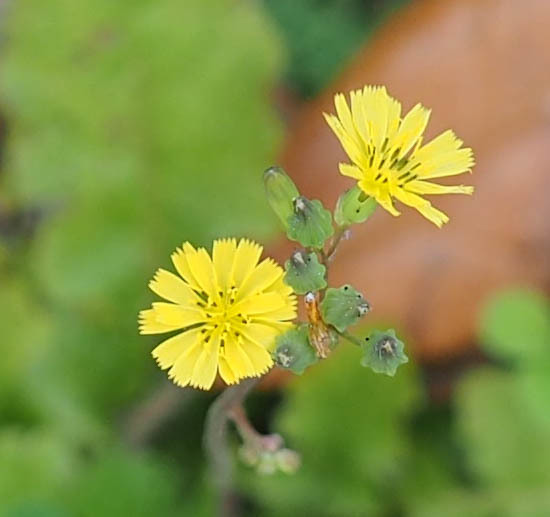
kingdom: Plantae
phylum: Tracheophyta
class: Magnoliopsida
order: Asterales
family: Asteraceae
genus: Youngia
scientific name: Youngia japonica
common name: Oriental false hawksbeard
